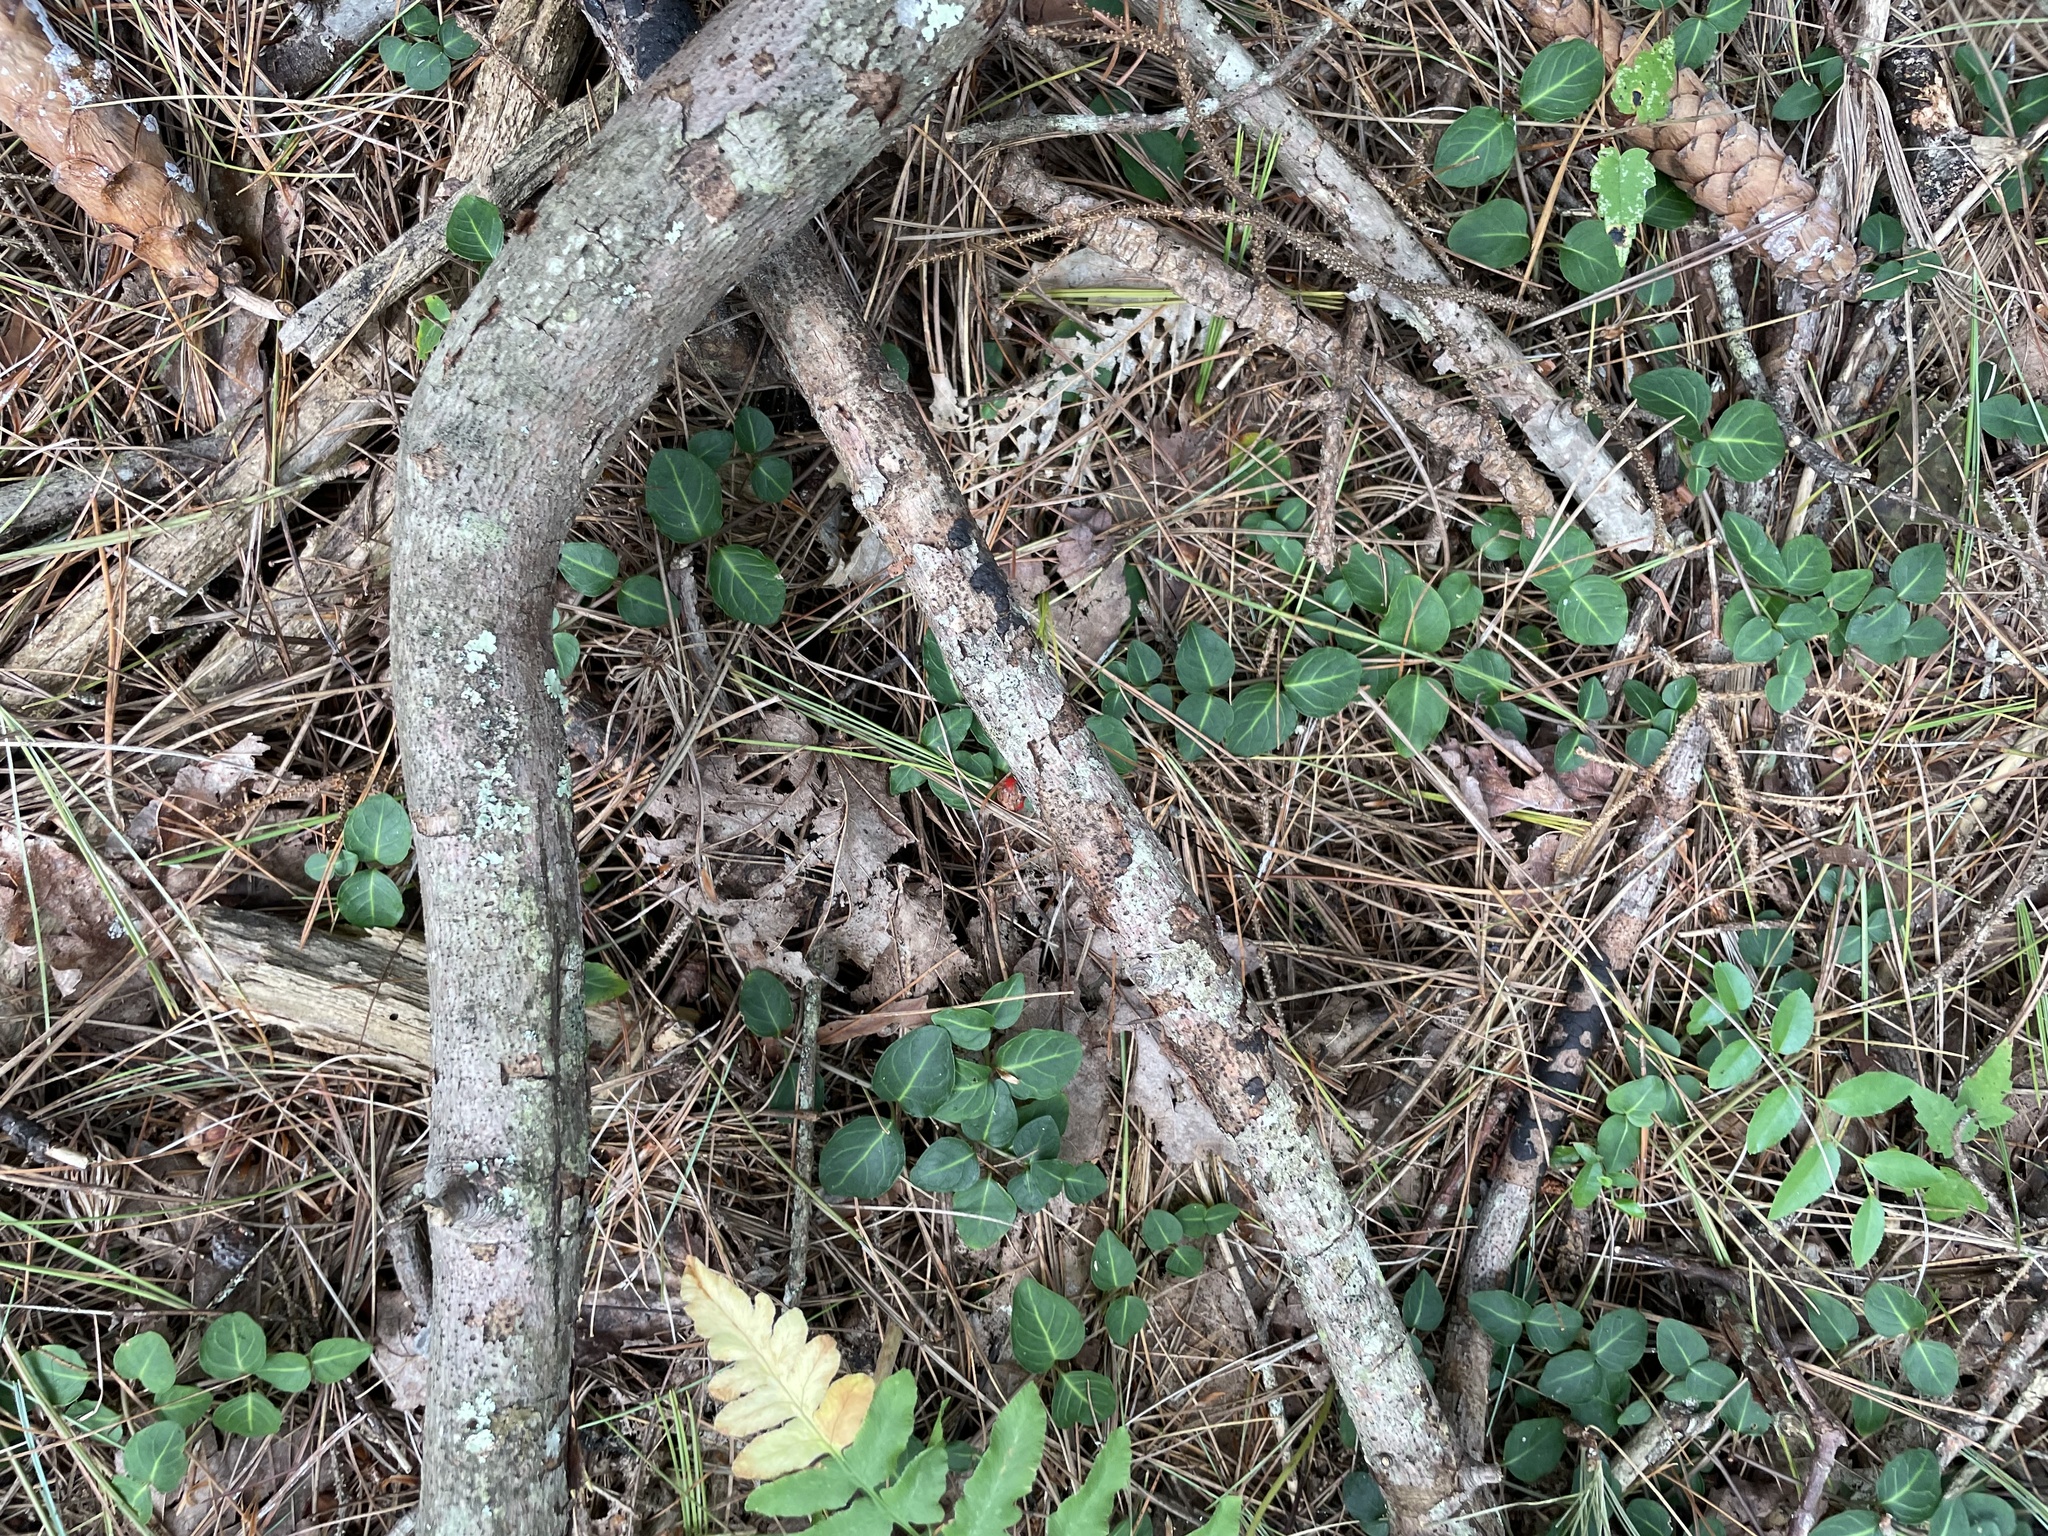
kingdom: Plantae
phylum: Tracheophyta
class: Magnoliopsida
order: Gentianales
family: Rubiaceae
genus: Mitchella
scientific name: Mitchella repens
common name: Partridge-berry
